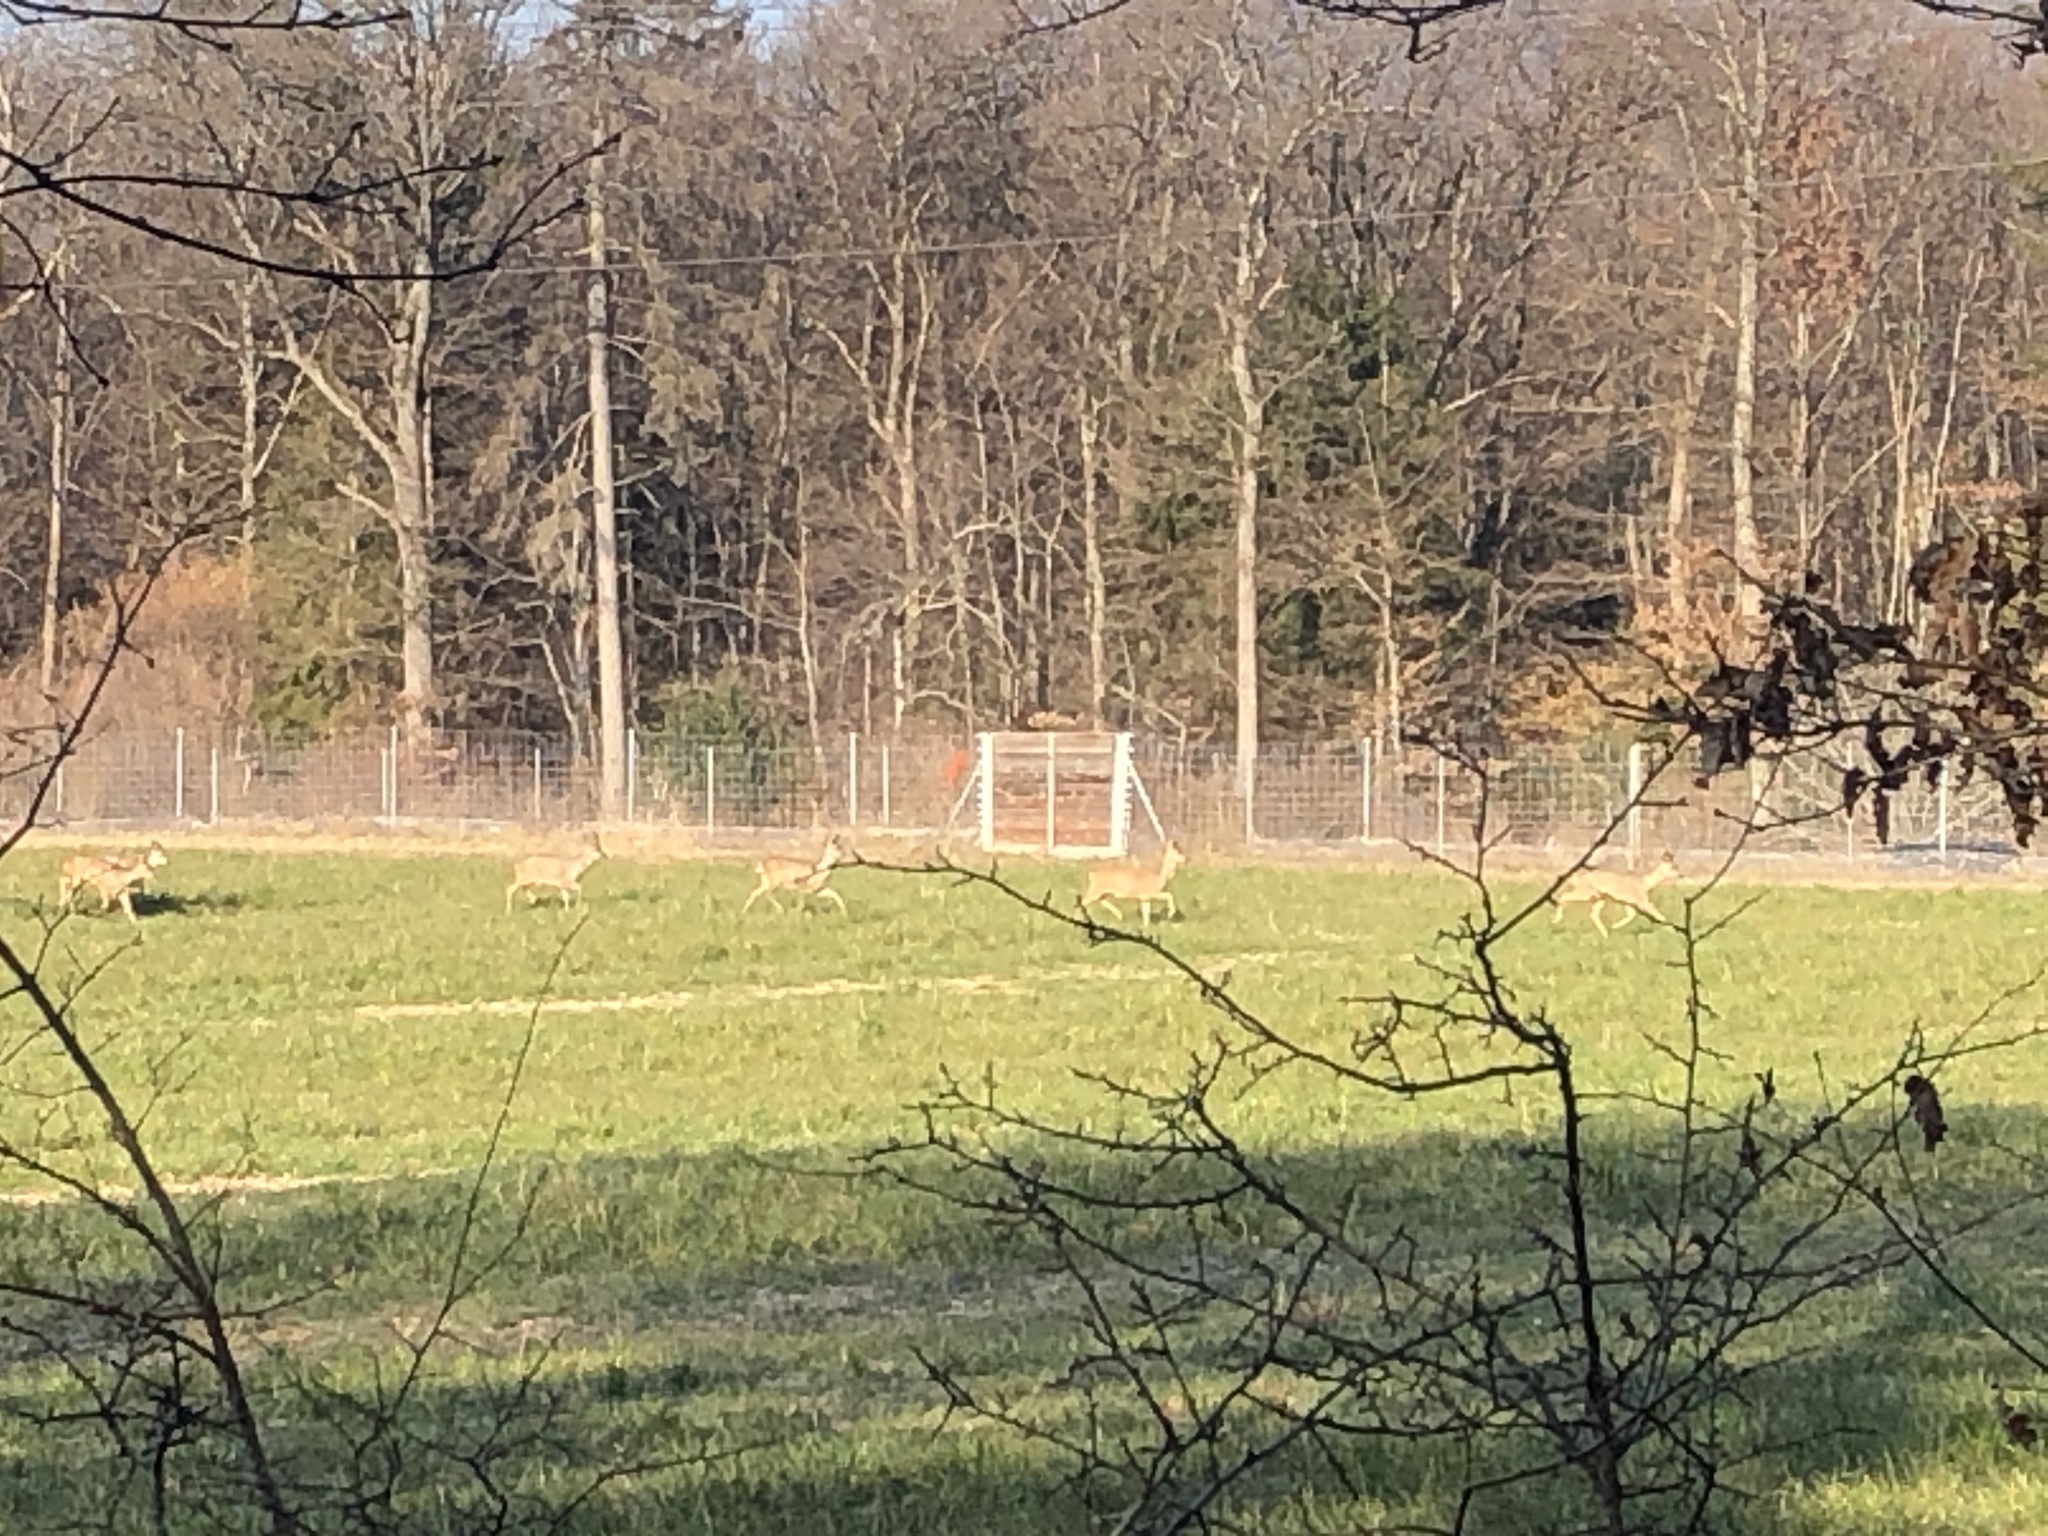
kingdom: Animalia
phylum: Chordata
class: Mammalia
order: Artiodactyla
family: Cervidae
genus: Capreolus
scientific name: Capreolus capreolus
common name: Western roe deer
